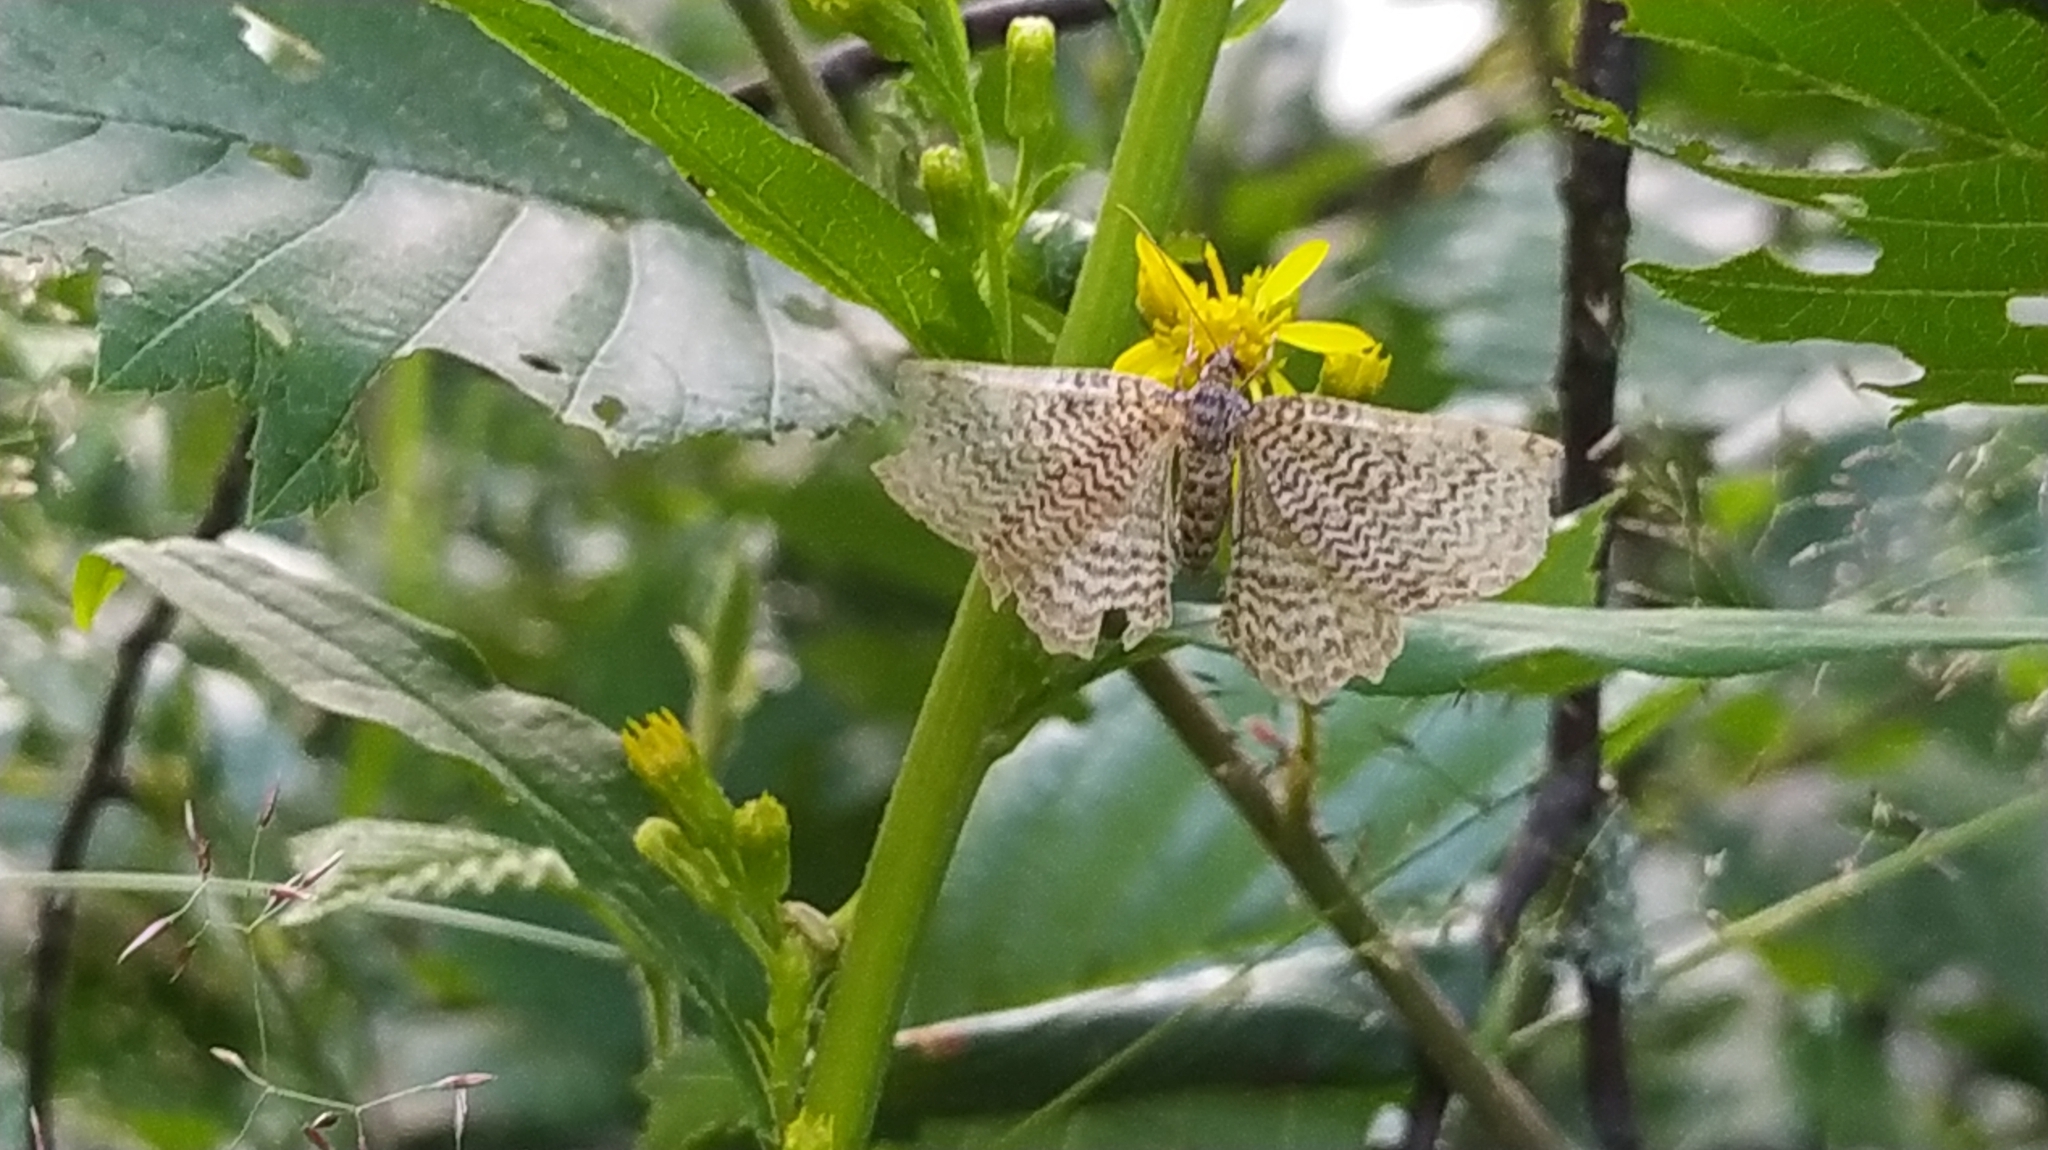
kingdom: Animalia
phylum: Arthropoda
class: Insecta
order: Lepidoptera
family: Geometridae
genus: Rheumaptera
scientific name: Rheumaptera undulata
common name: Scallop shell
